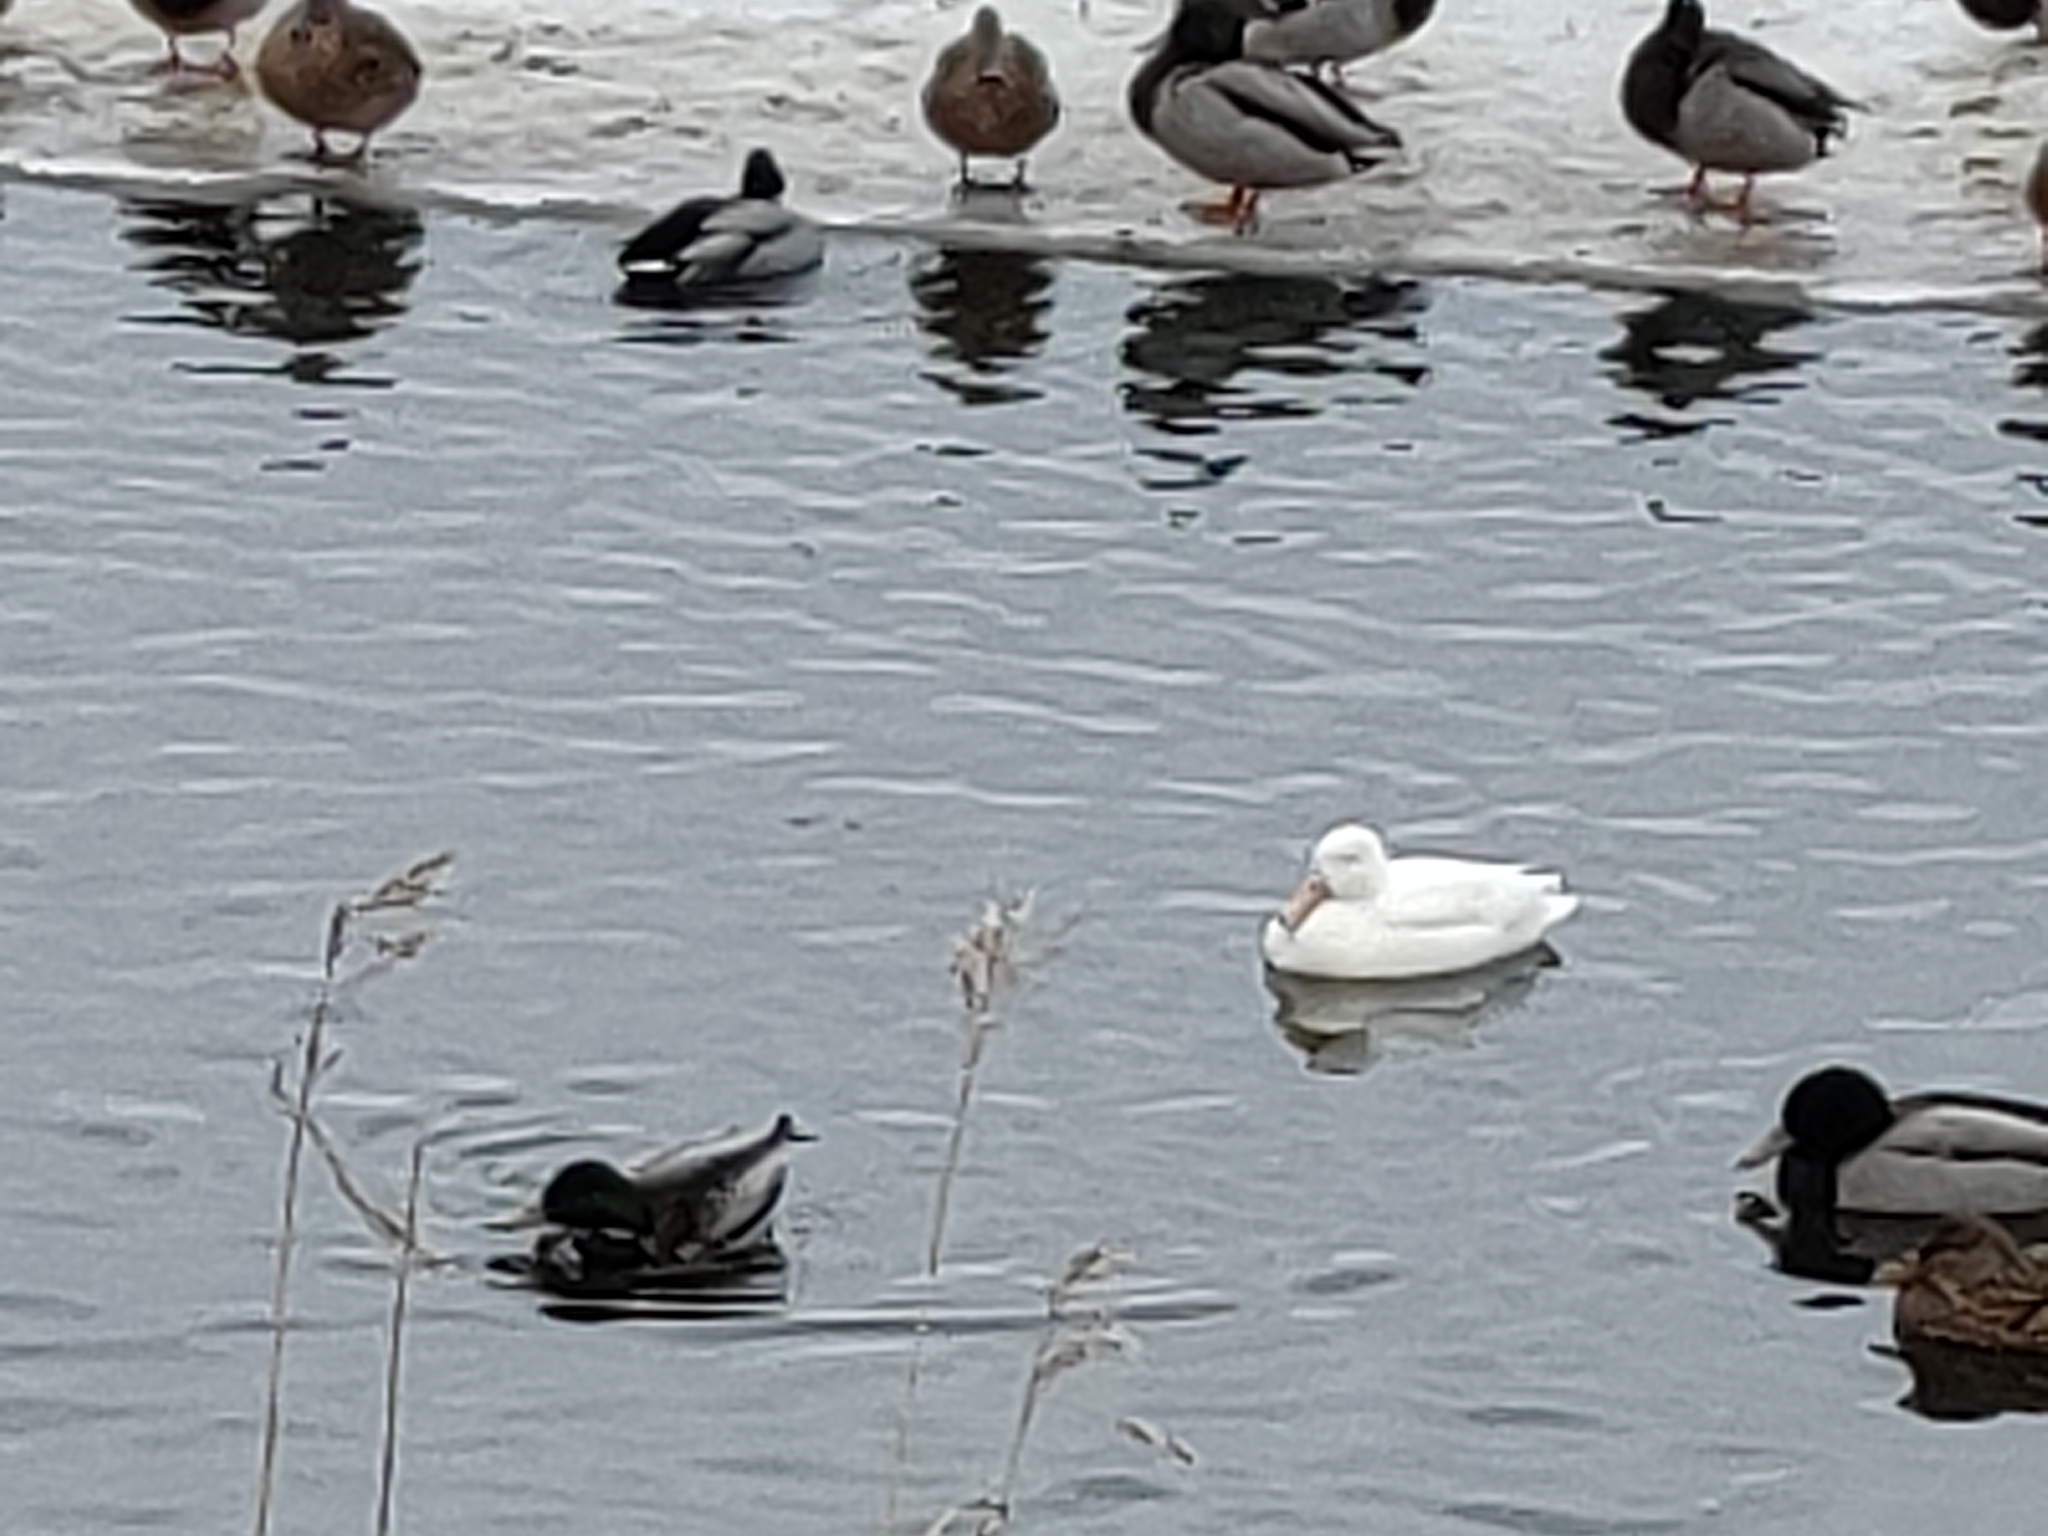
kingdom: Animalia
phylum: Chordata
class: Aves
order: Anseriformes
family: Anatidae
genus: Anas
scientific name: Anas platyrhynchos
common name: Mallard
